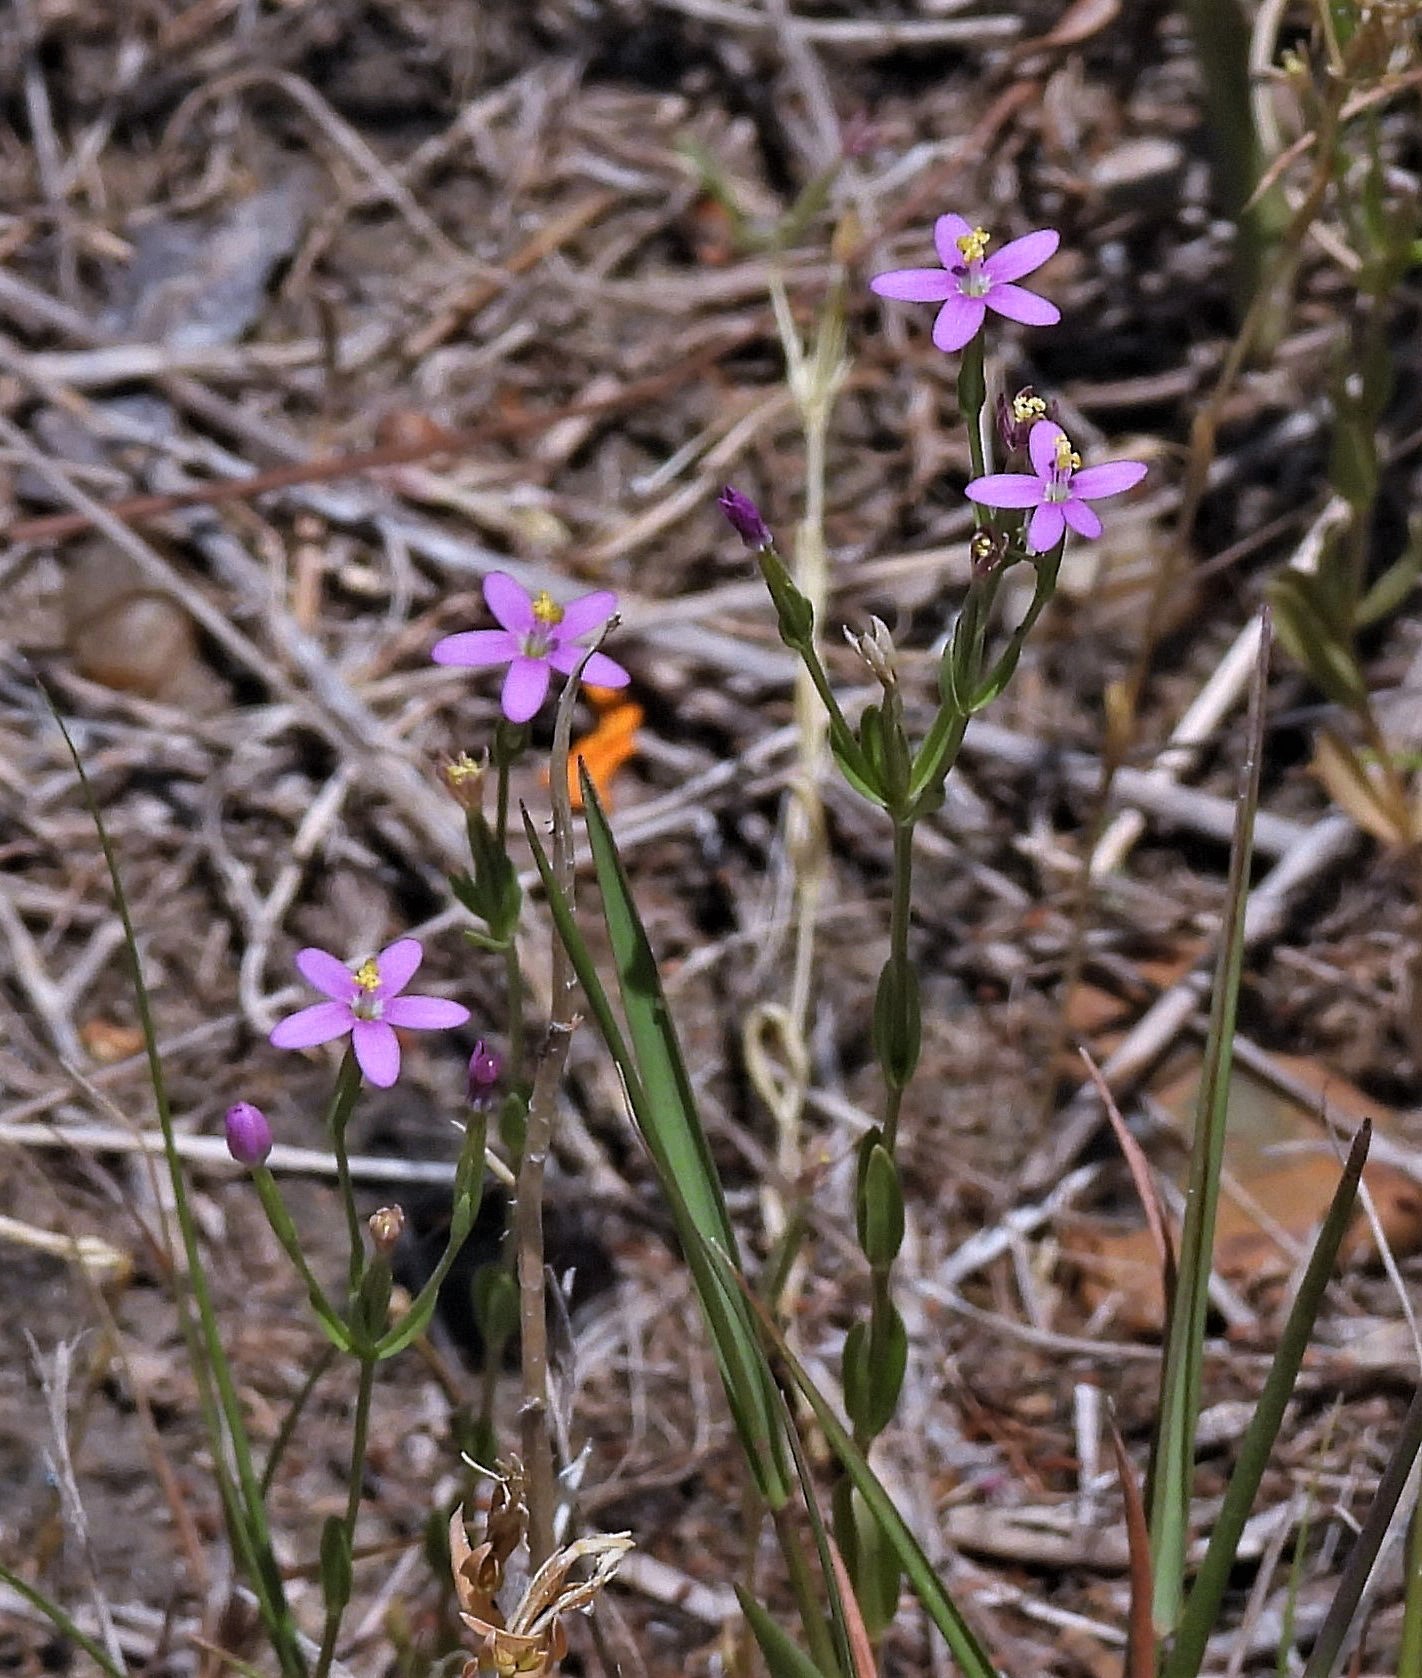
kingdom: Plantae
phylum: Tracheophyta
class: Magnoliopsida
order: Gentianales
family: Gentianaceae
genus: Centaurium
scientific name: Centaurium pulchellum
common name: Lesser centaury
